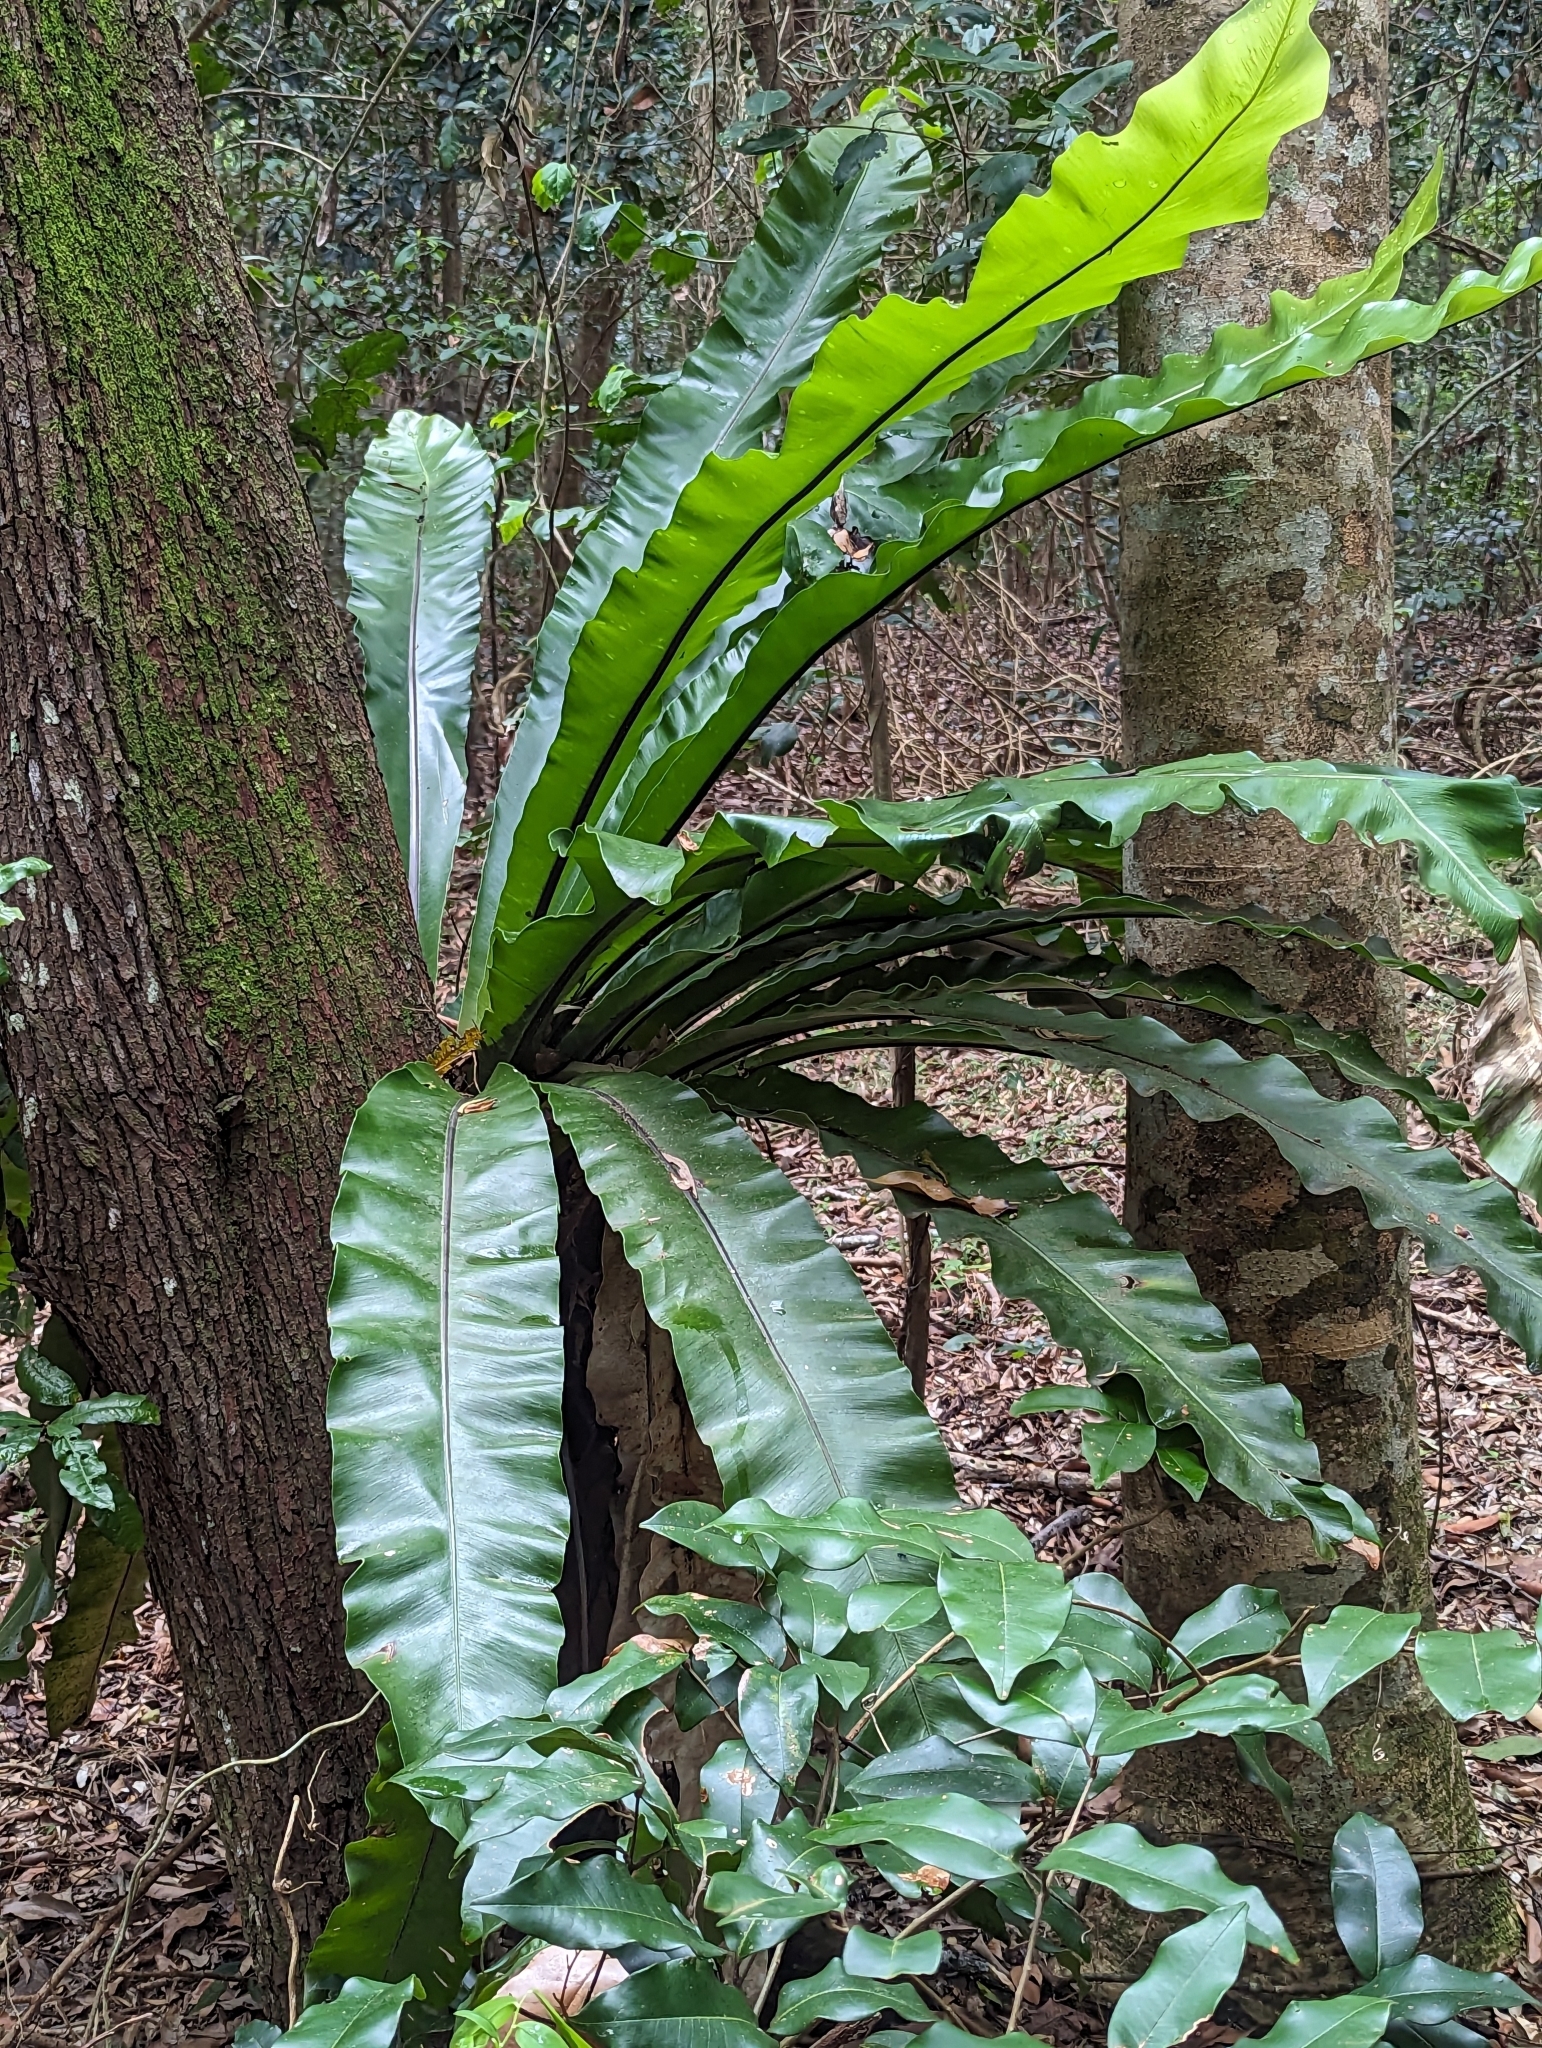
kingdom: Plantae
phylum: Tracheophyta
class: Polypodiopsida
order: Polypodiales
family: Aspleniaceae
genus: Asplenium
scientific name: Asplenium australasicum
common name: Bird's-nest fern
